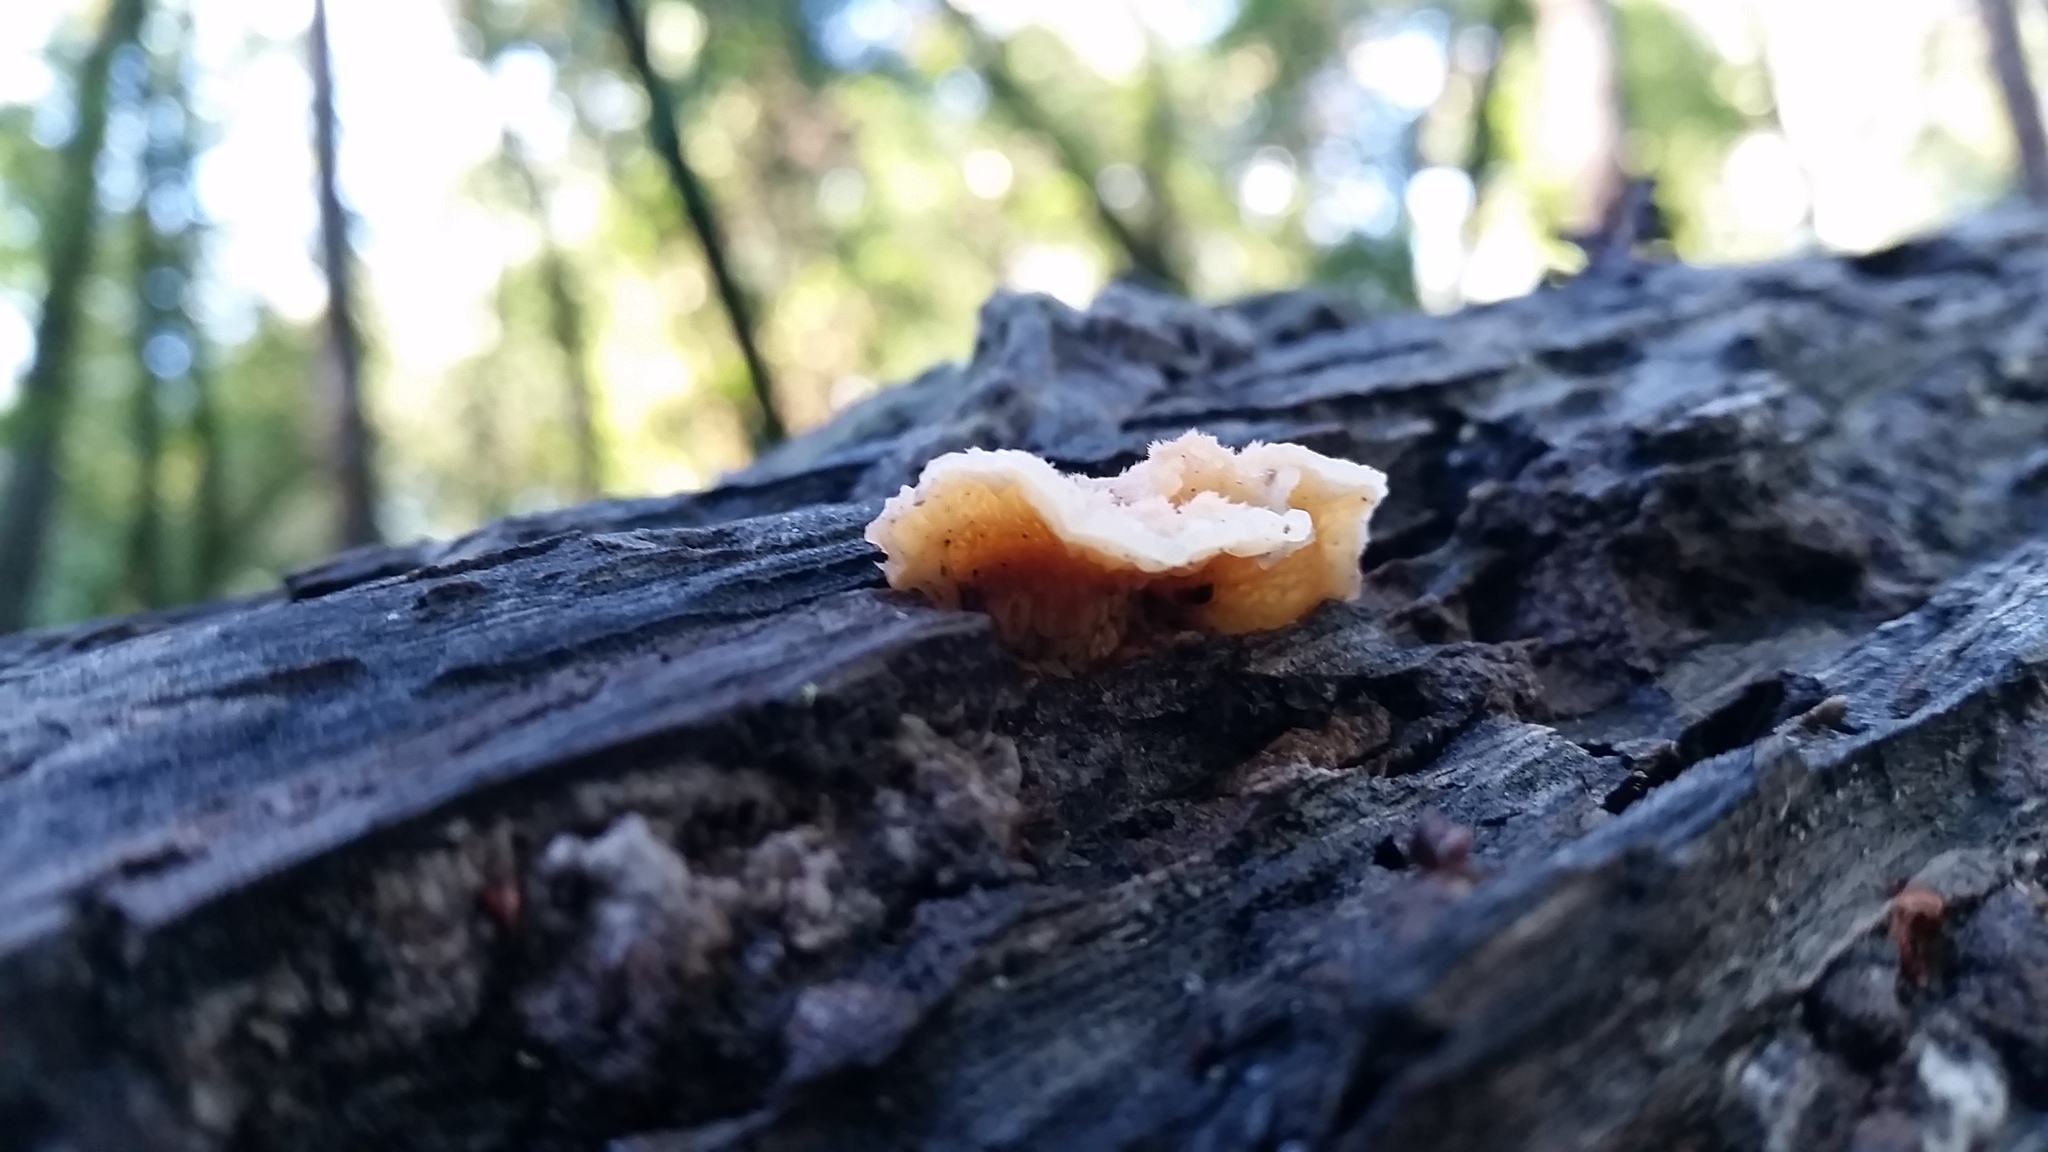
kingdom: Fungi
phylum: Basidiomycota
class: Agaricomycetes
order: Polyporales
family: Meruliaceae
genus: Phlebia
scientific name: Phlebia tremellosa
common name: Jelly rot
